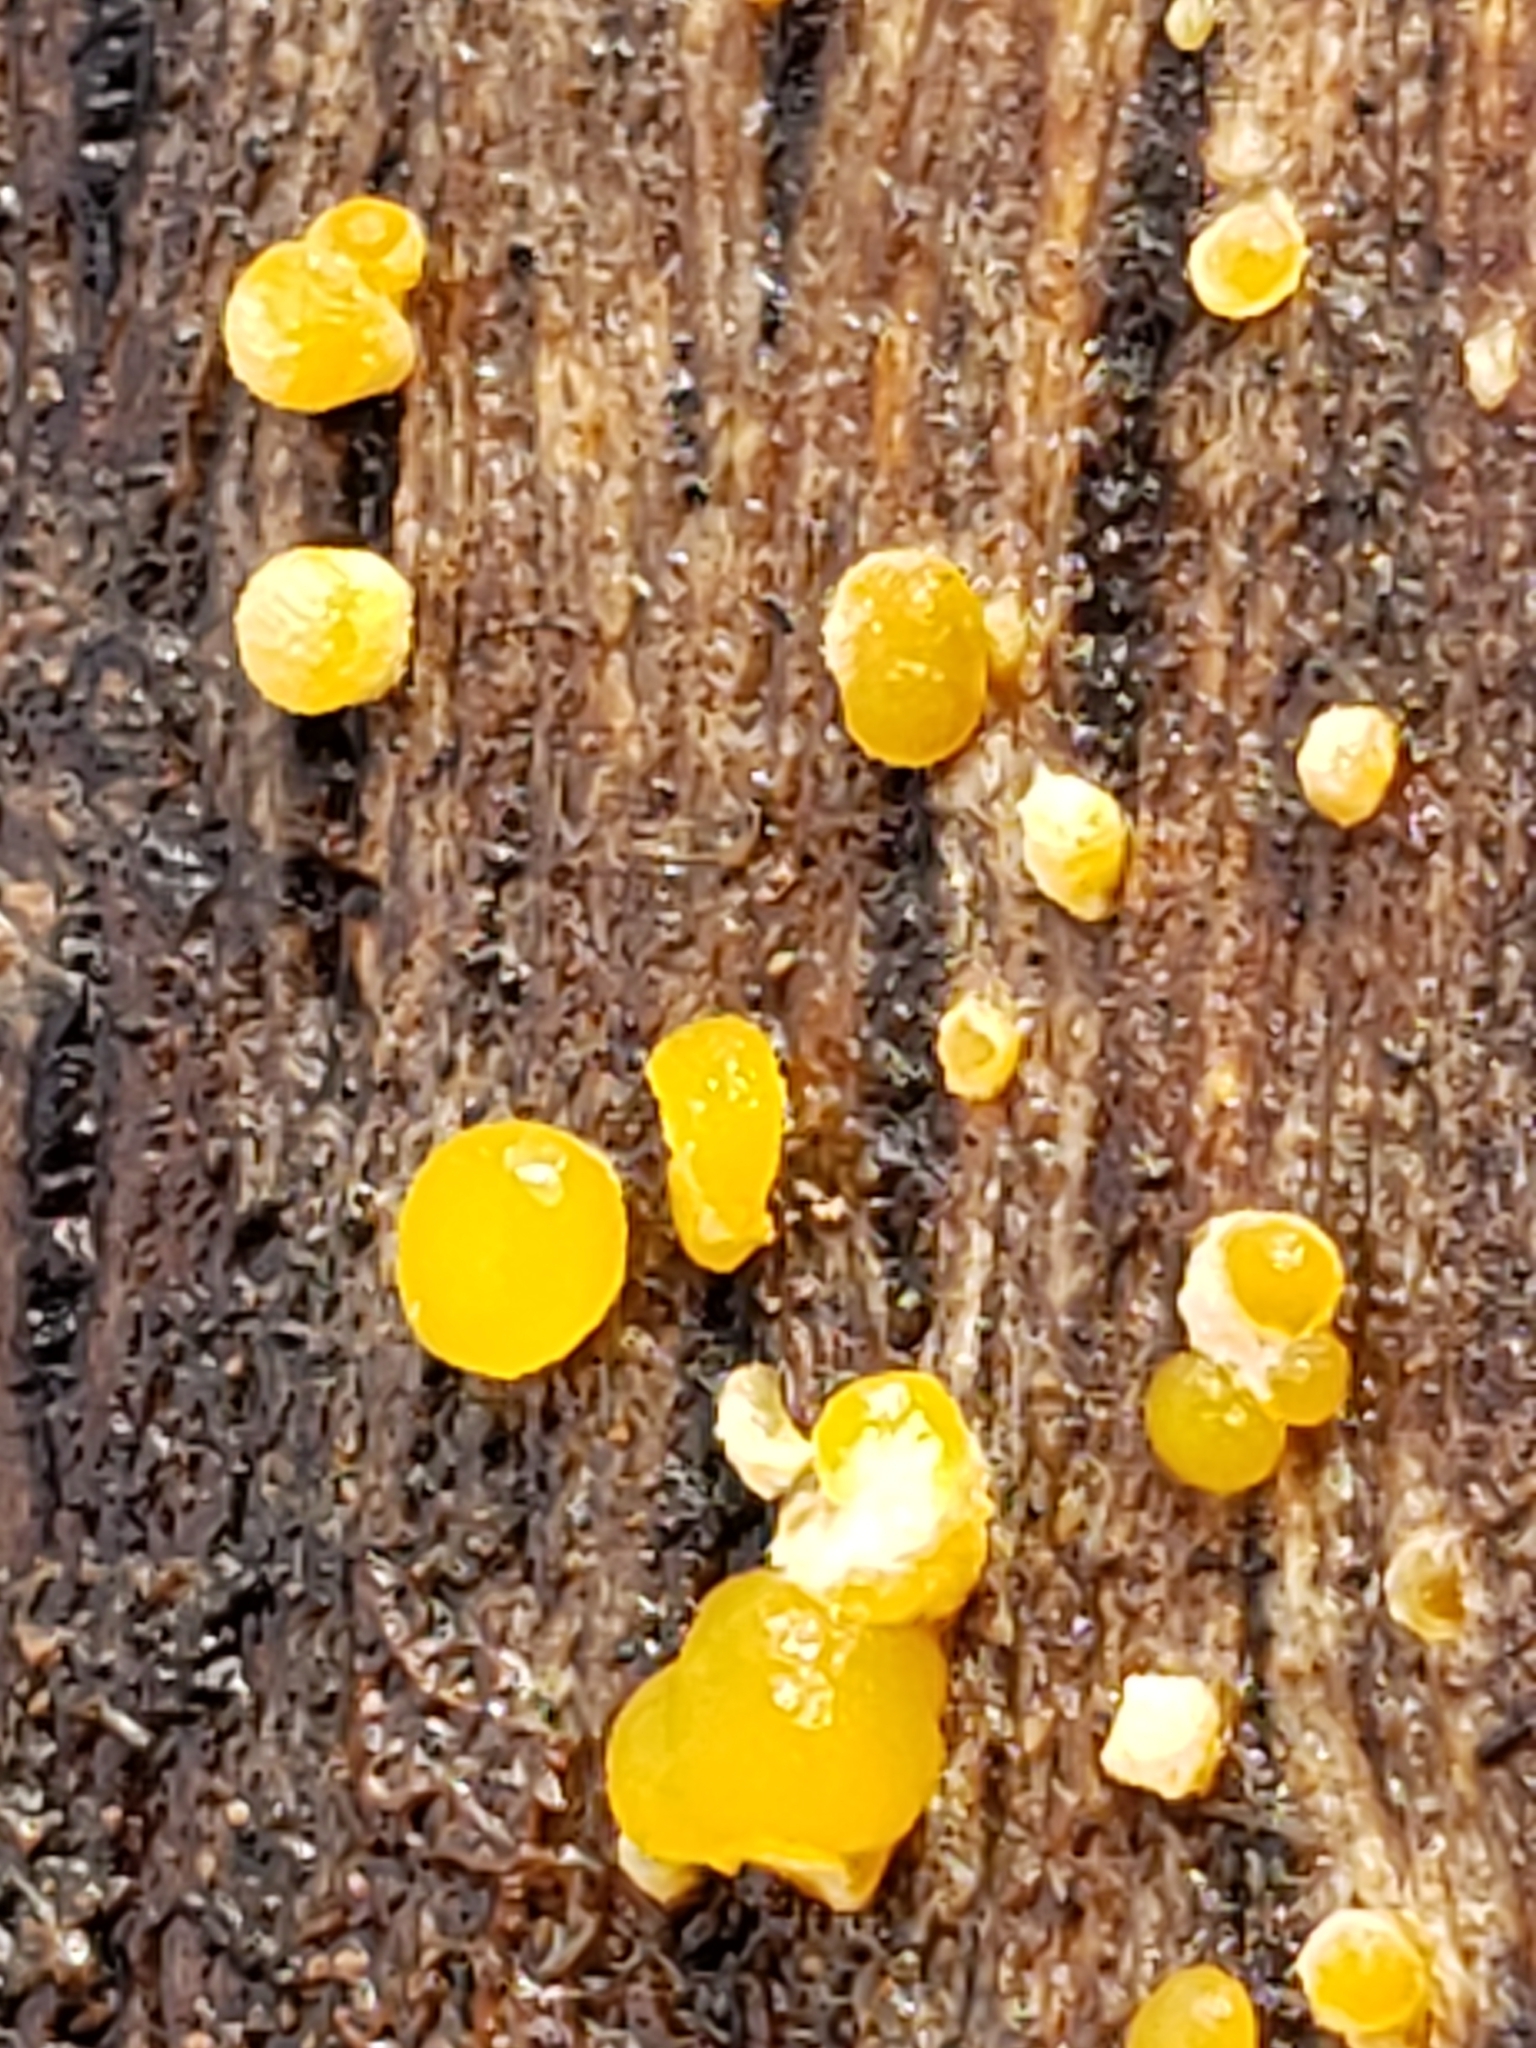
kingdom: Fungi
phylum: Basidiomycota
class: Dacrymycetes
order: Dacrymycetales
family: Dacrymycetaceae
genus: Dacrymyces
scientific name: Dacrymyces stillatus
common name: Common jelly spot
